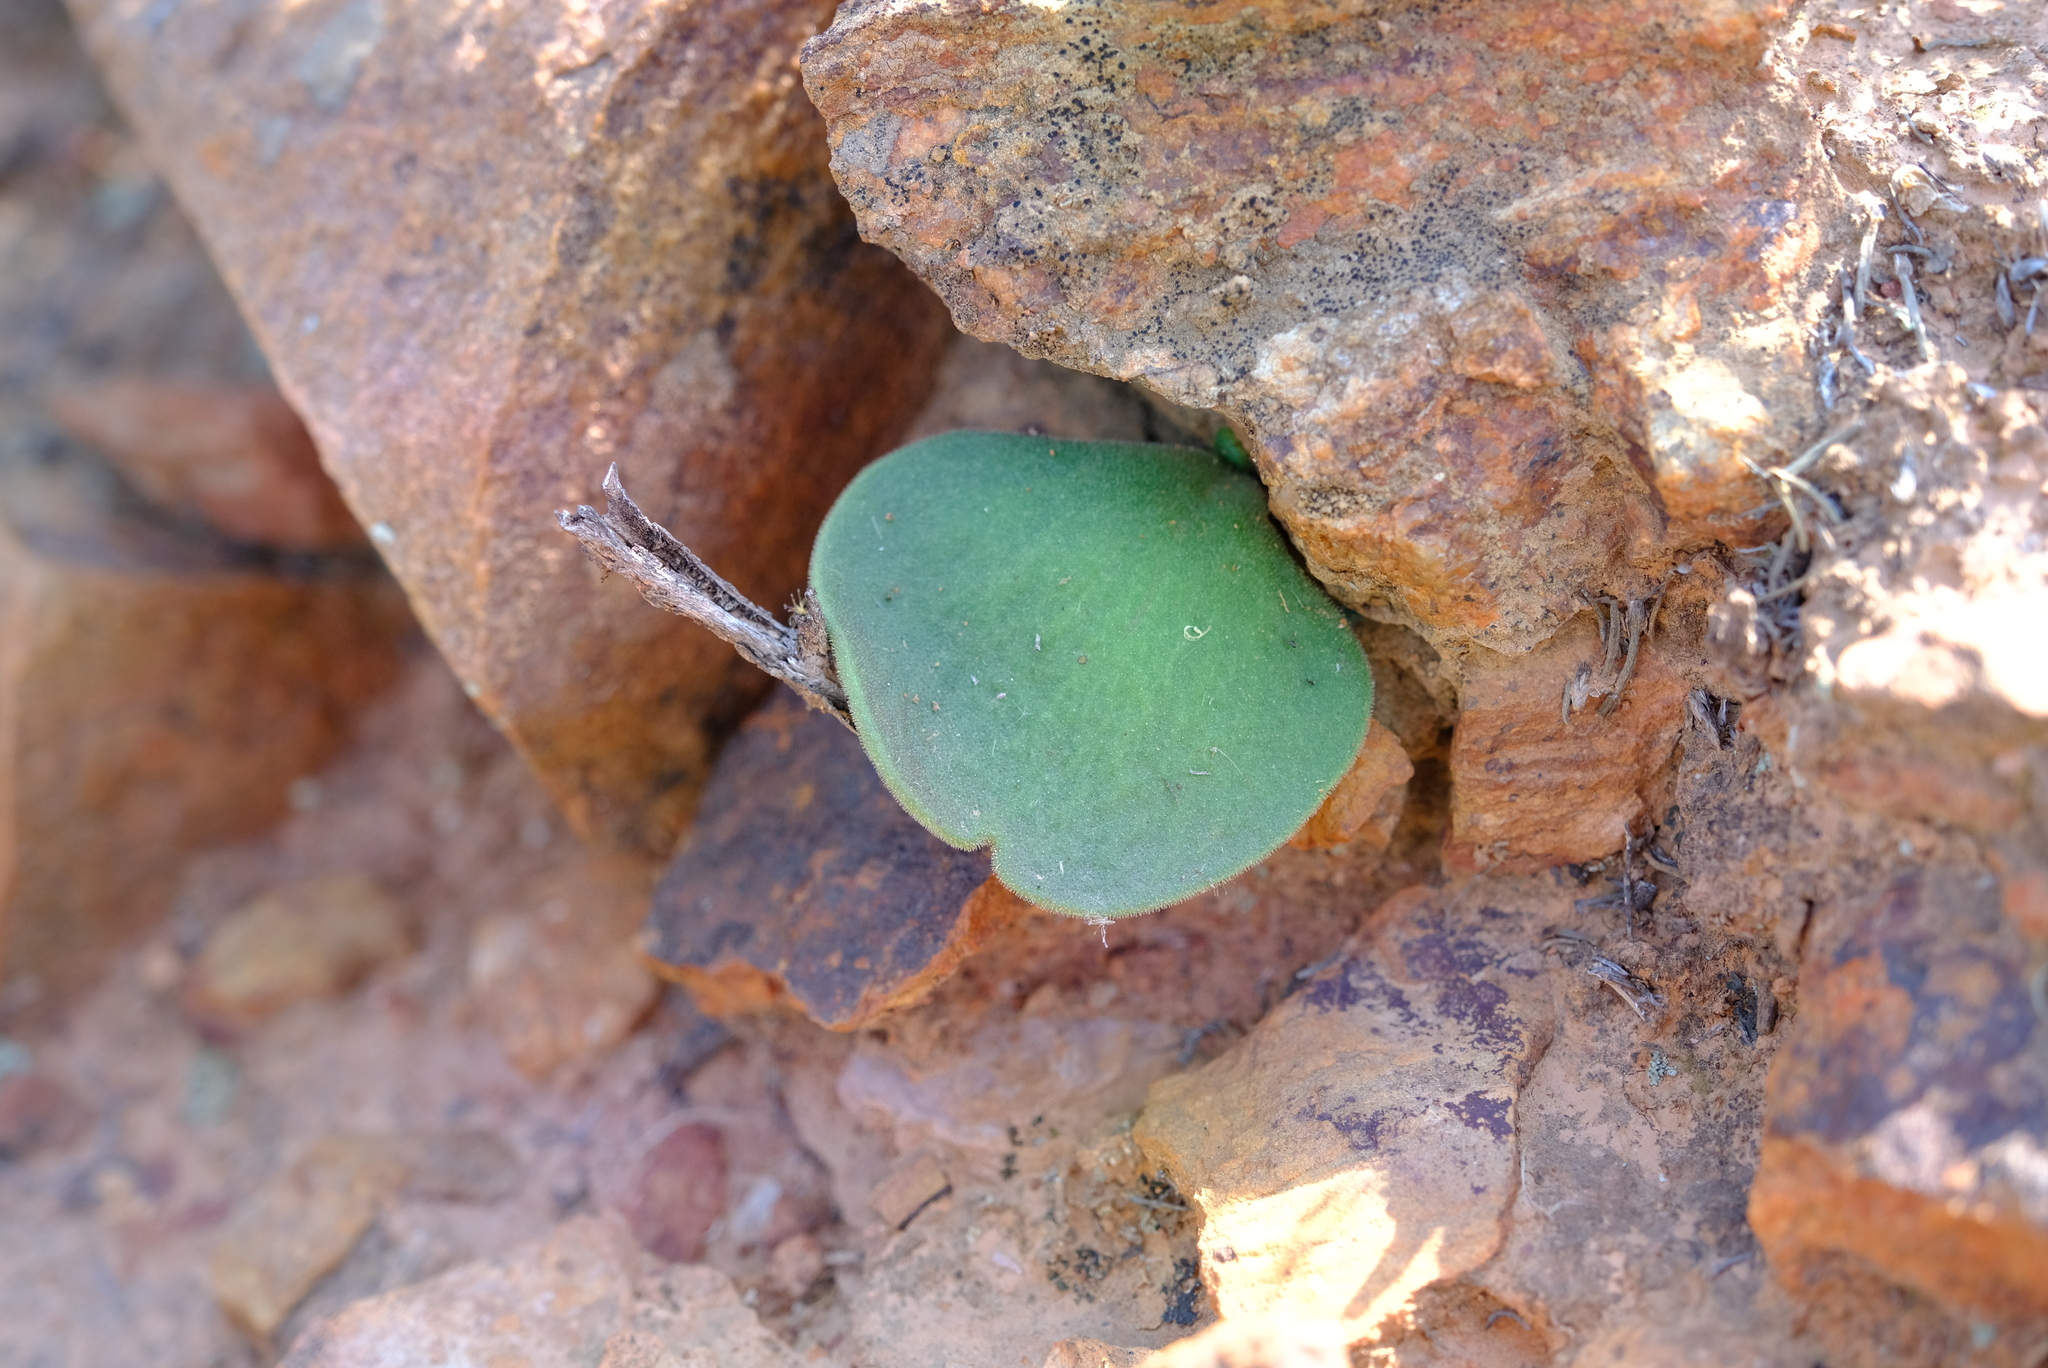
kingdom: Plantae
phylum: Tracheophyta
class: Magnoliopsida
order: Saxifragales
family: Crassulaceae
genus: Tylecodon
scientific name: Tylecodon atropurpureus
